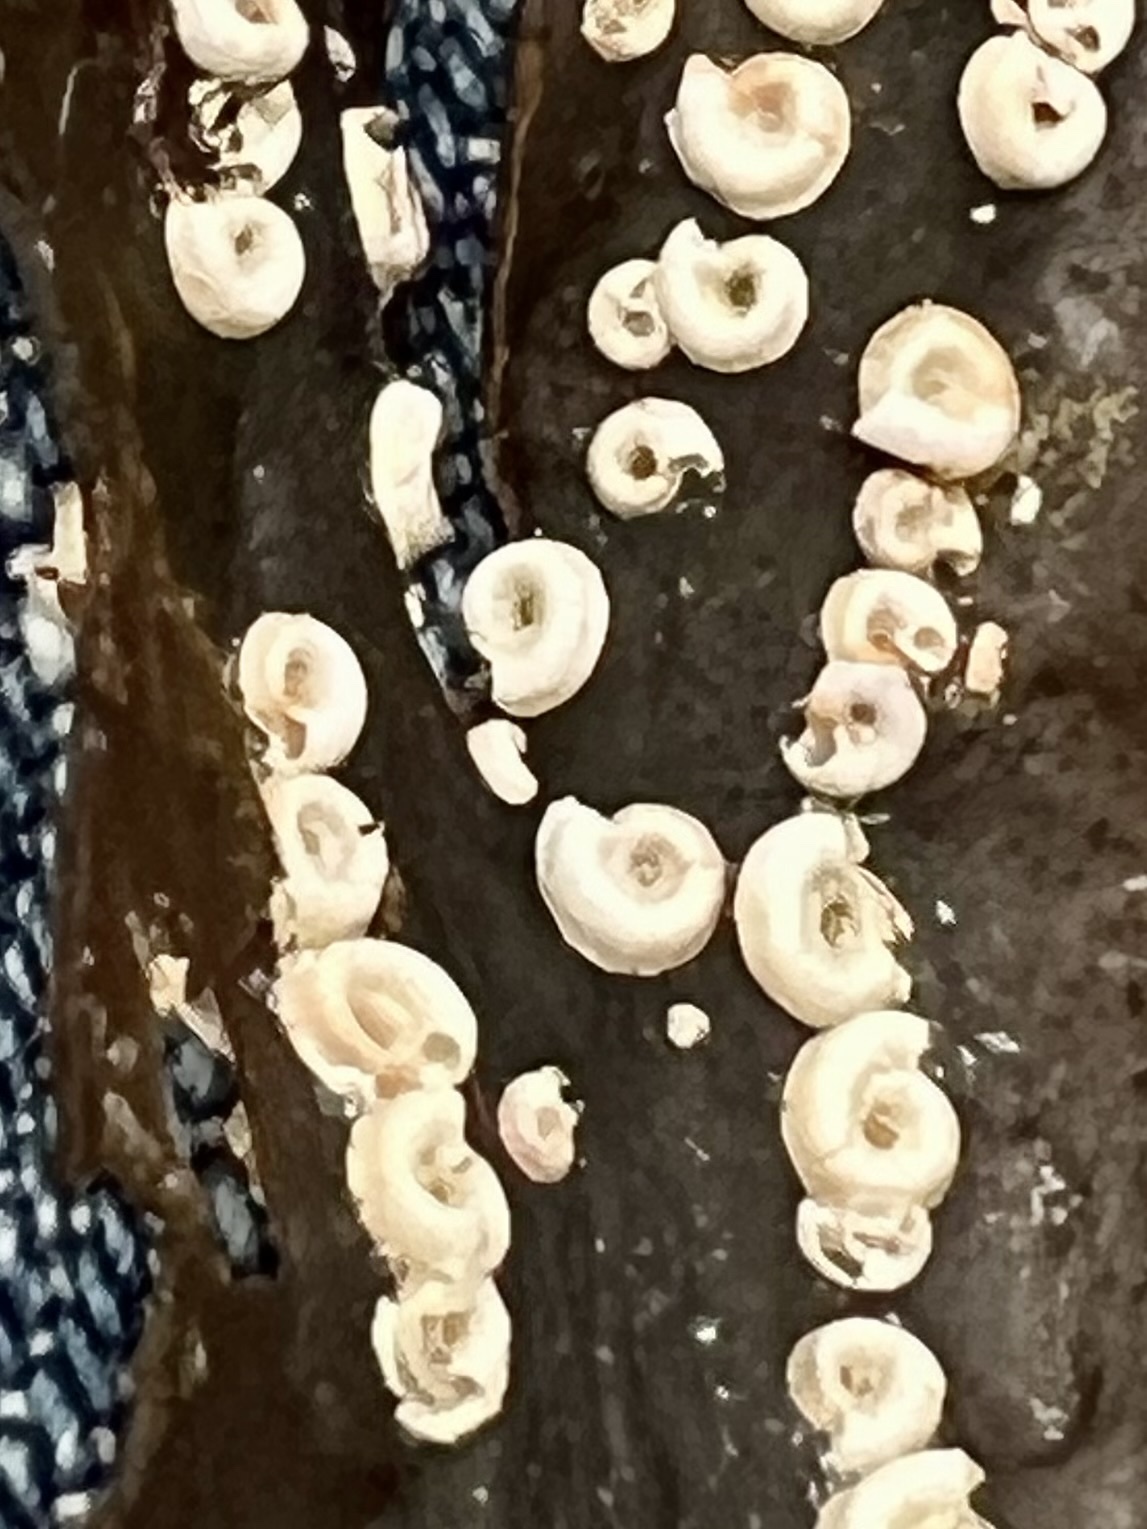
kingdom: Animalia
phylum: Annelida
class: Polychaeta
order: Sabellida
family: Serpulidae
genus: Spirorbis
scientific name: Spirorbis spirorbis
